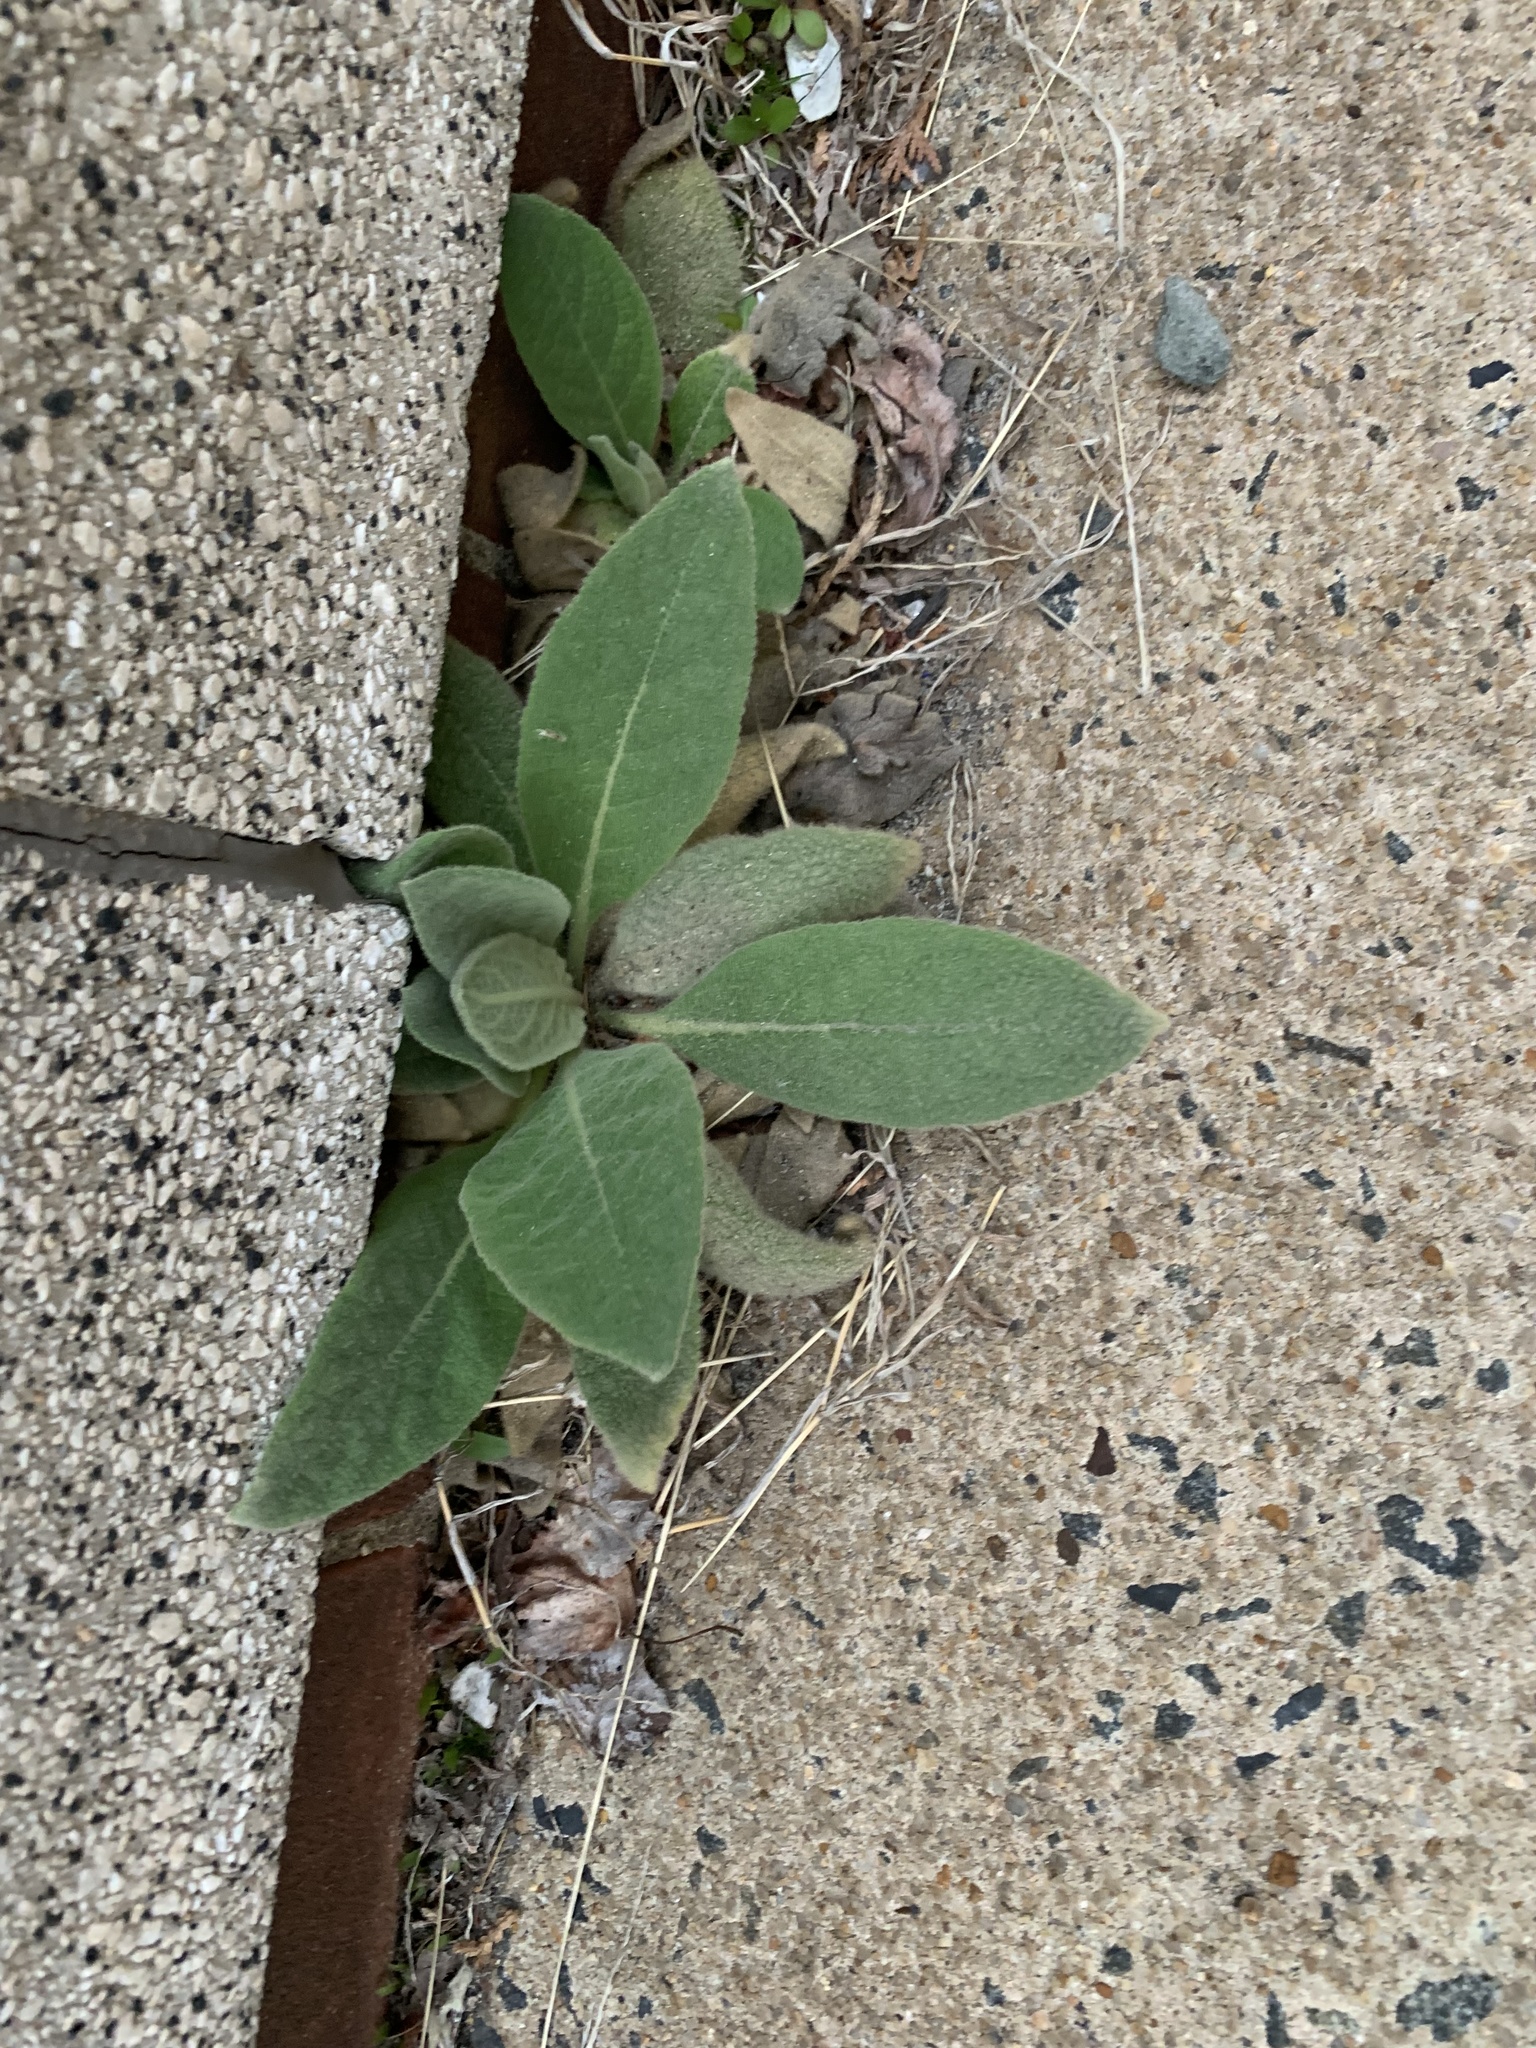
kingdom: Plantae
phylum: Tracheophyta
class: Magnoliopsida
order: Lamiales
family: Scrophulariaceae
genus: Verbascum
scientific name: Verbascum thapsus
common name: Common mullein
